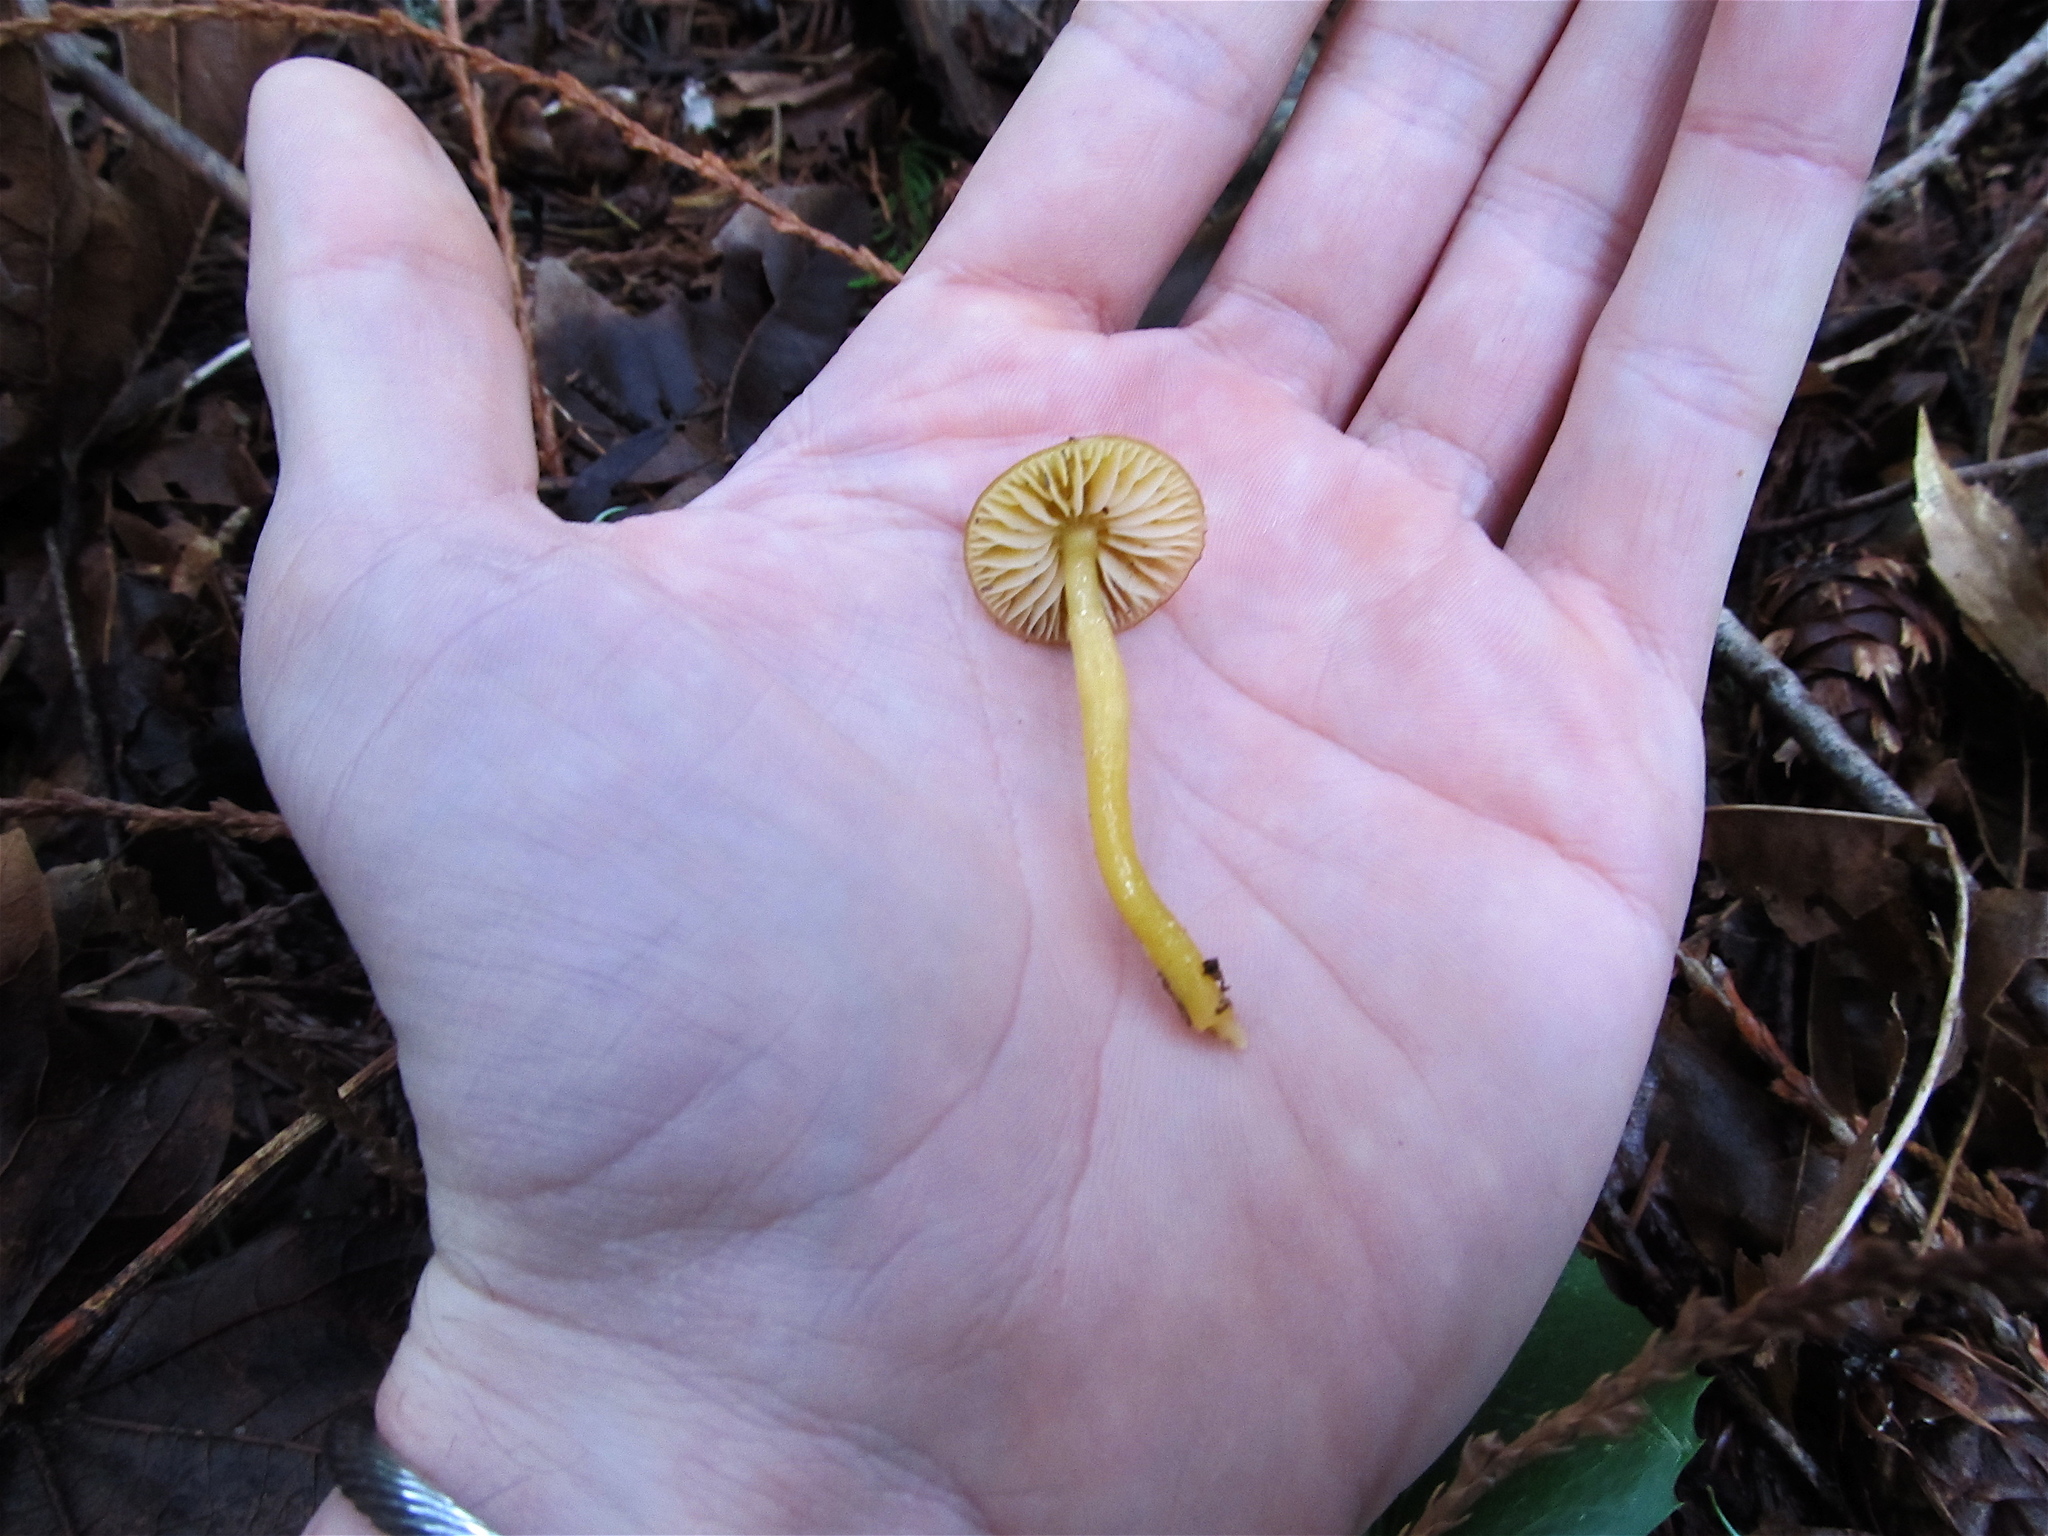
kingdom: Fungi
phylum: Basidiomycota
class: Agaricomycetes
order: Agaricales
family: Hygrophoraceae
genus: Gliophorus
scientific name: Gliophorus psittacinus
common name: Parrot wax-cap
